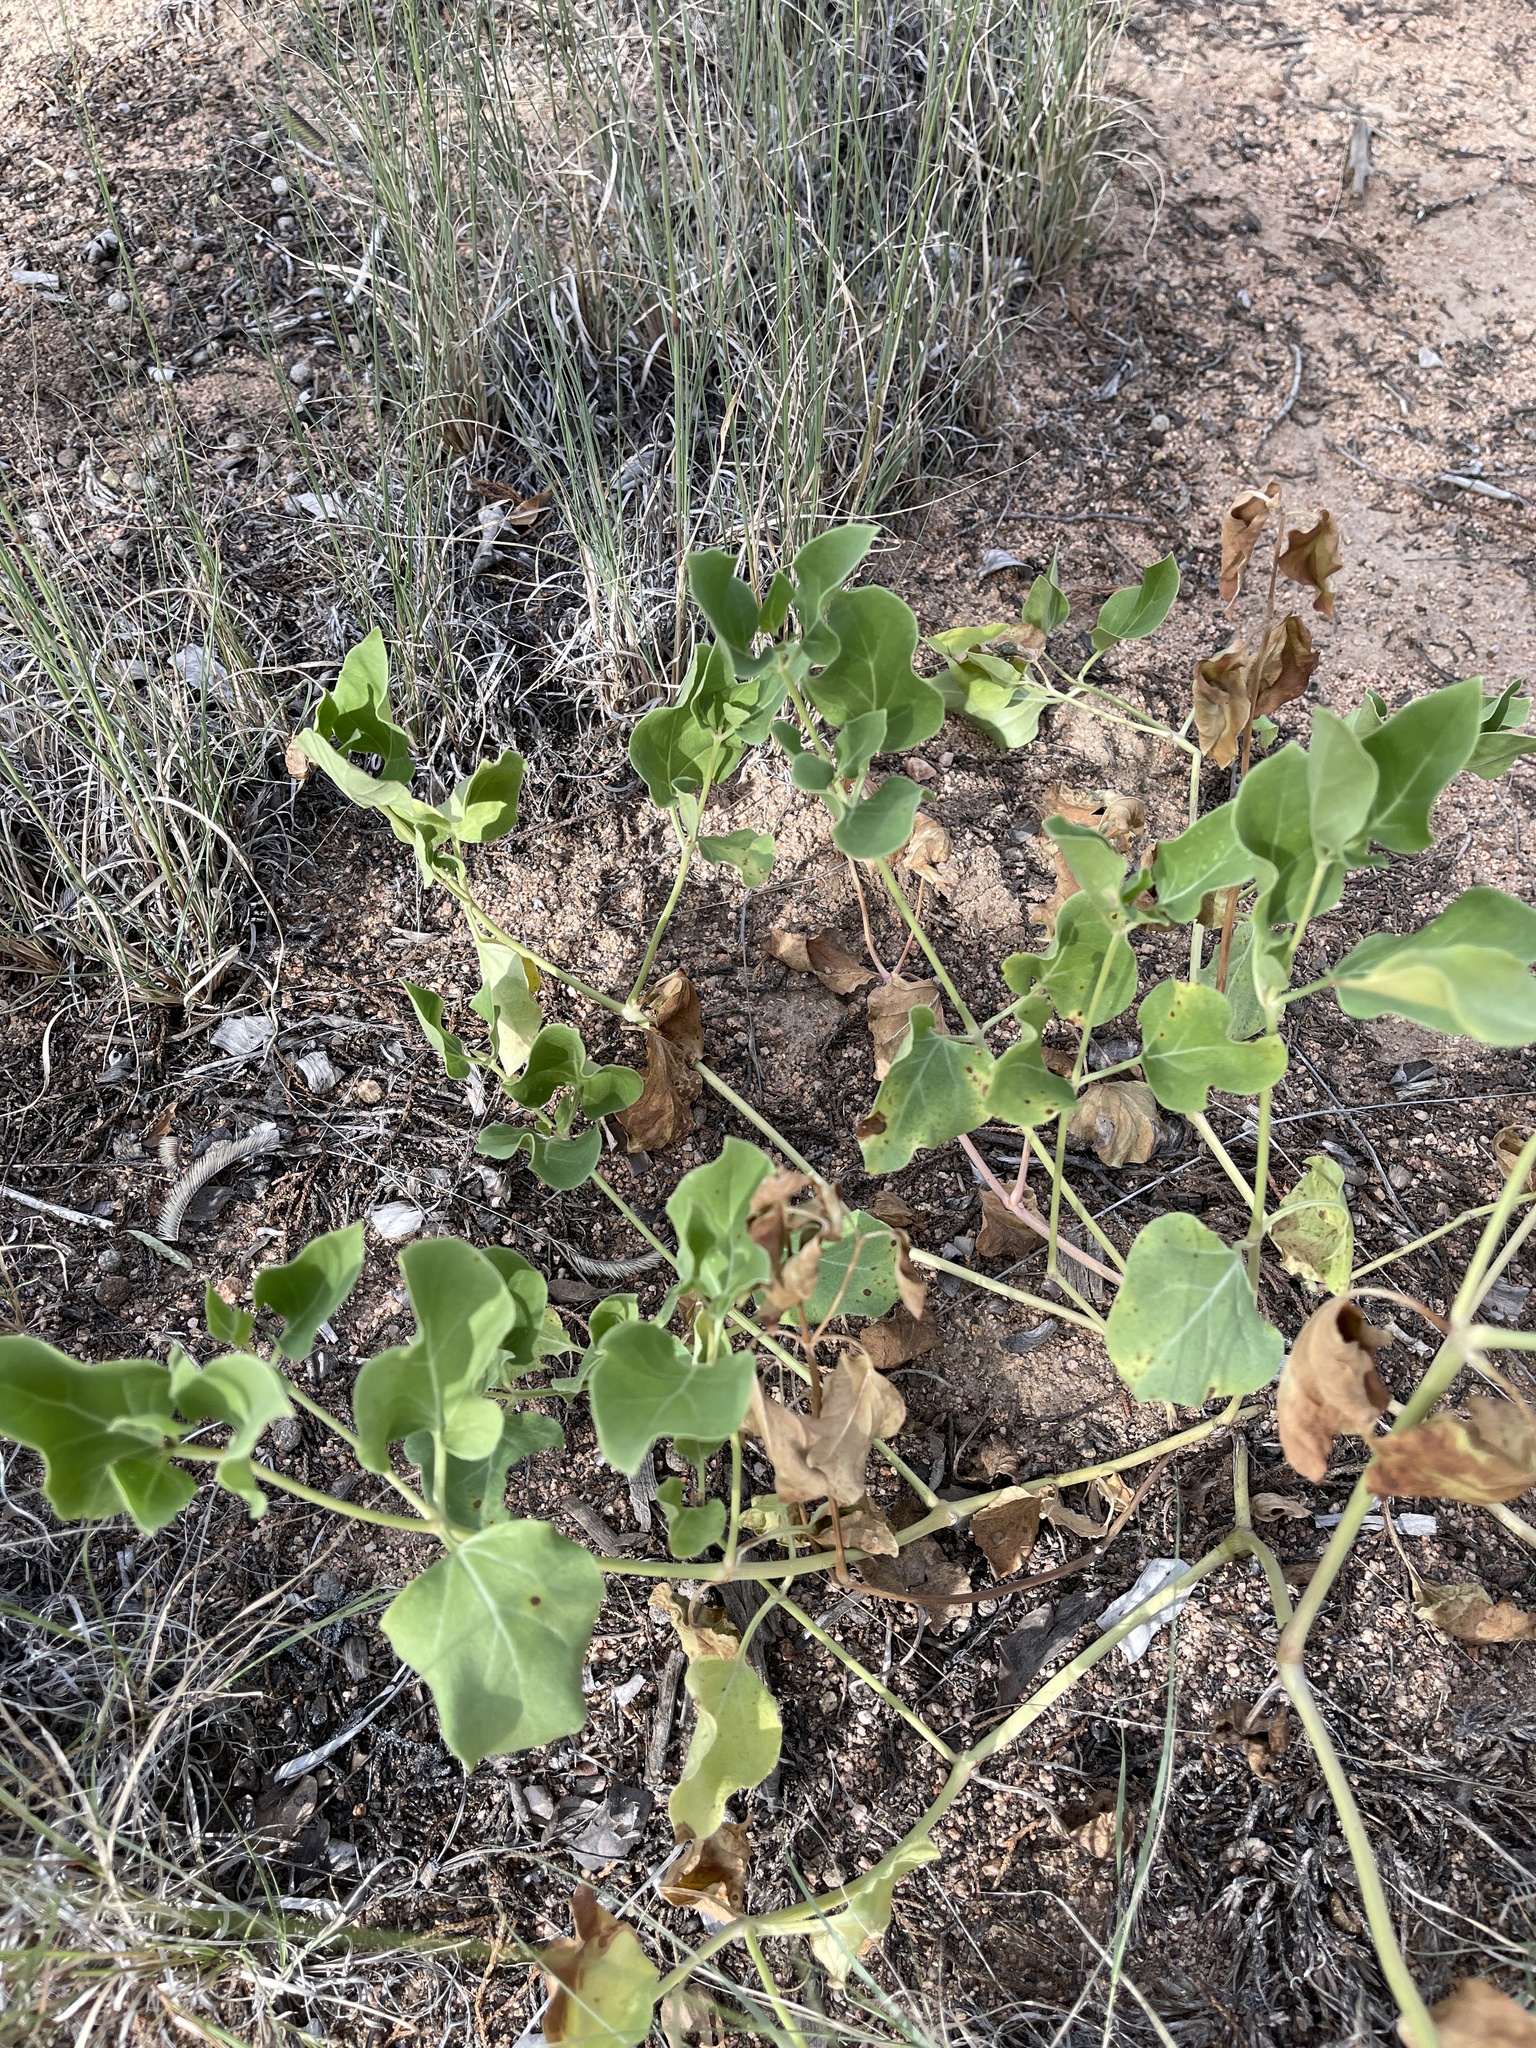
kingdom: Plantae
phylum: Tracheophyta
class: Magnoliopsida
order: Caryophyllales
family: Nyctaginaceae
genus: Mirabilis
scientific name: Mirabilis multiflora
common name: Froebel's four-o'clock
